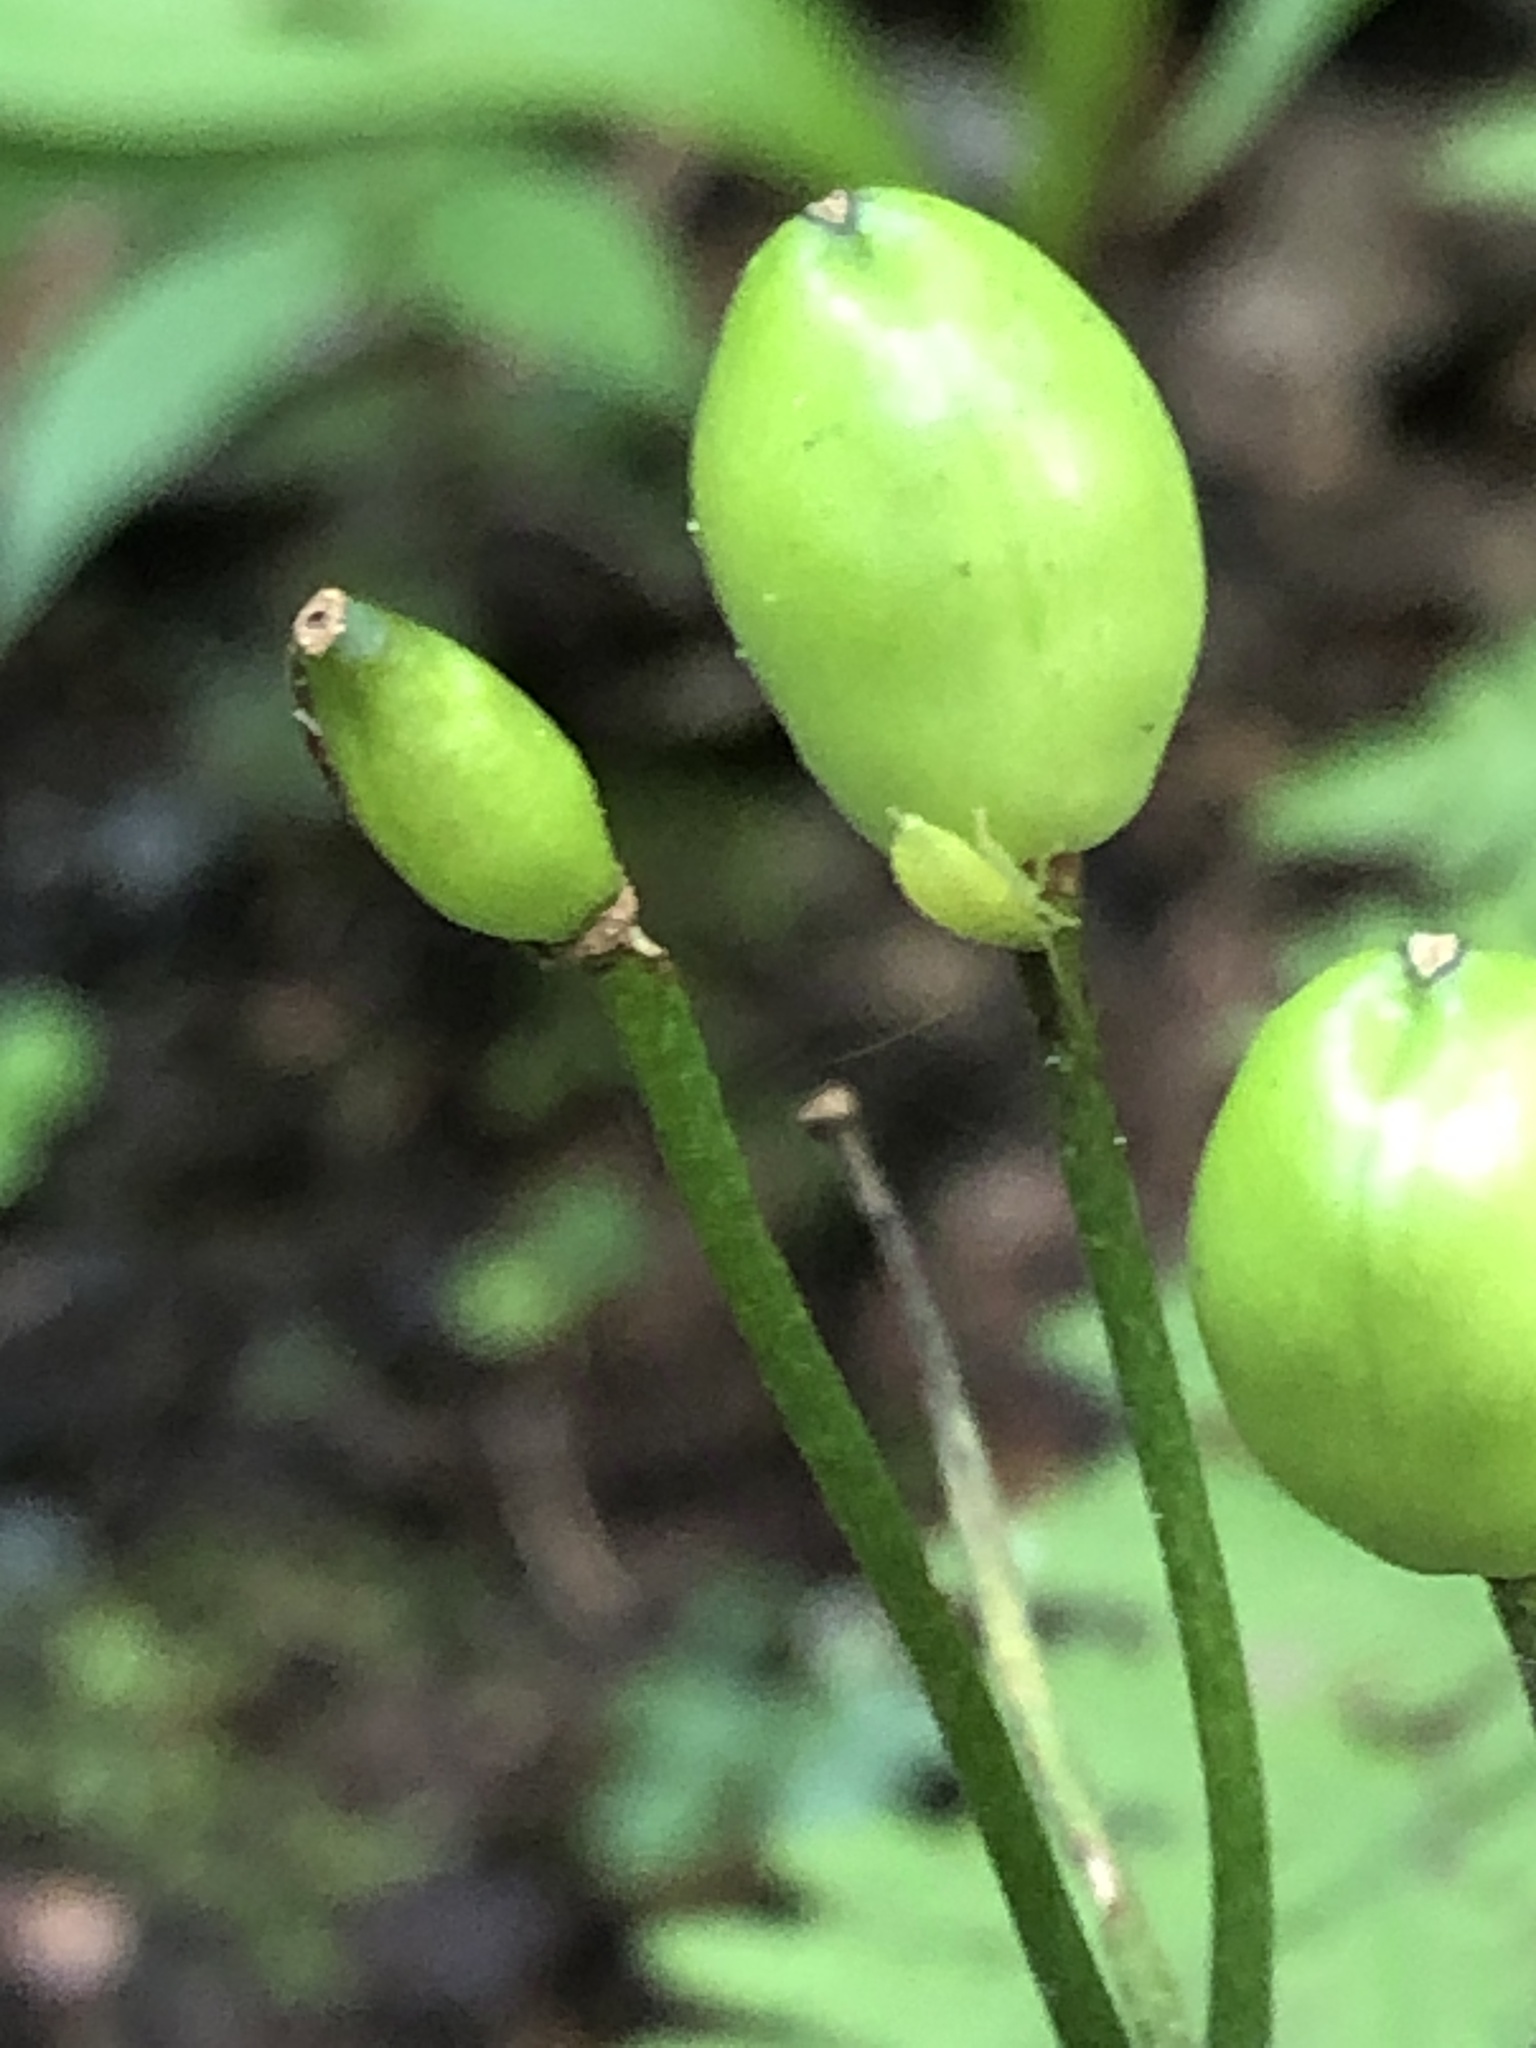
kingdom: Plantae
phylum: Tracheophyta
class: Liliopsida
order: Liliales
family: Liliaceae
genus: Clintonia
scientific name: Clintonia borealis
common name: Yellow clintonia
